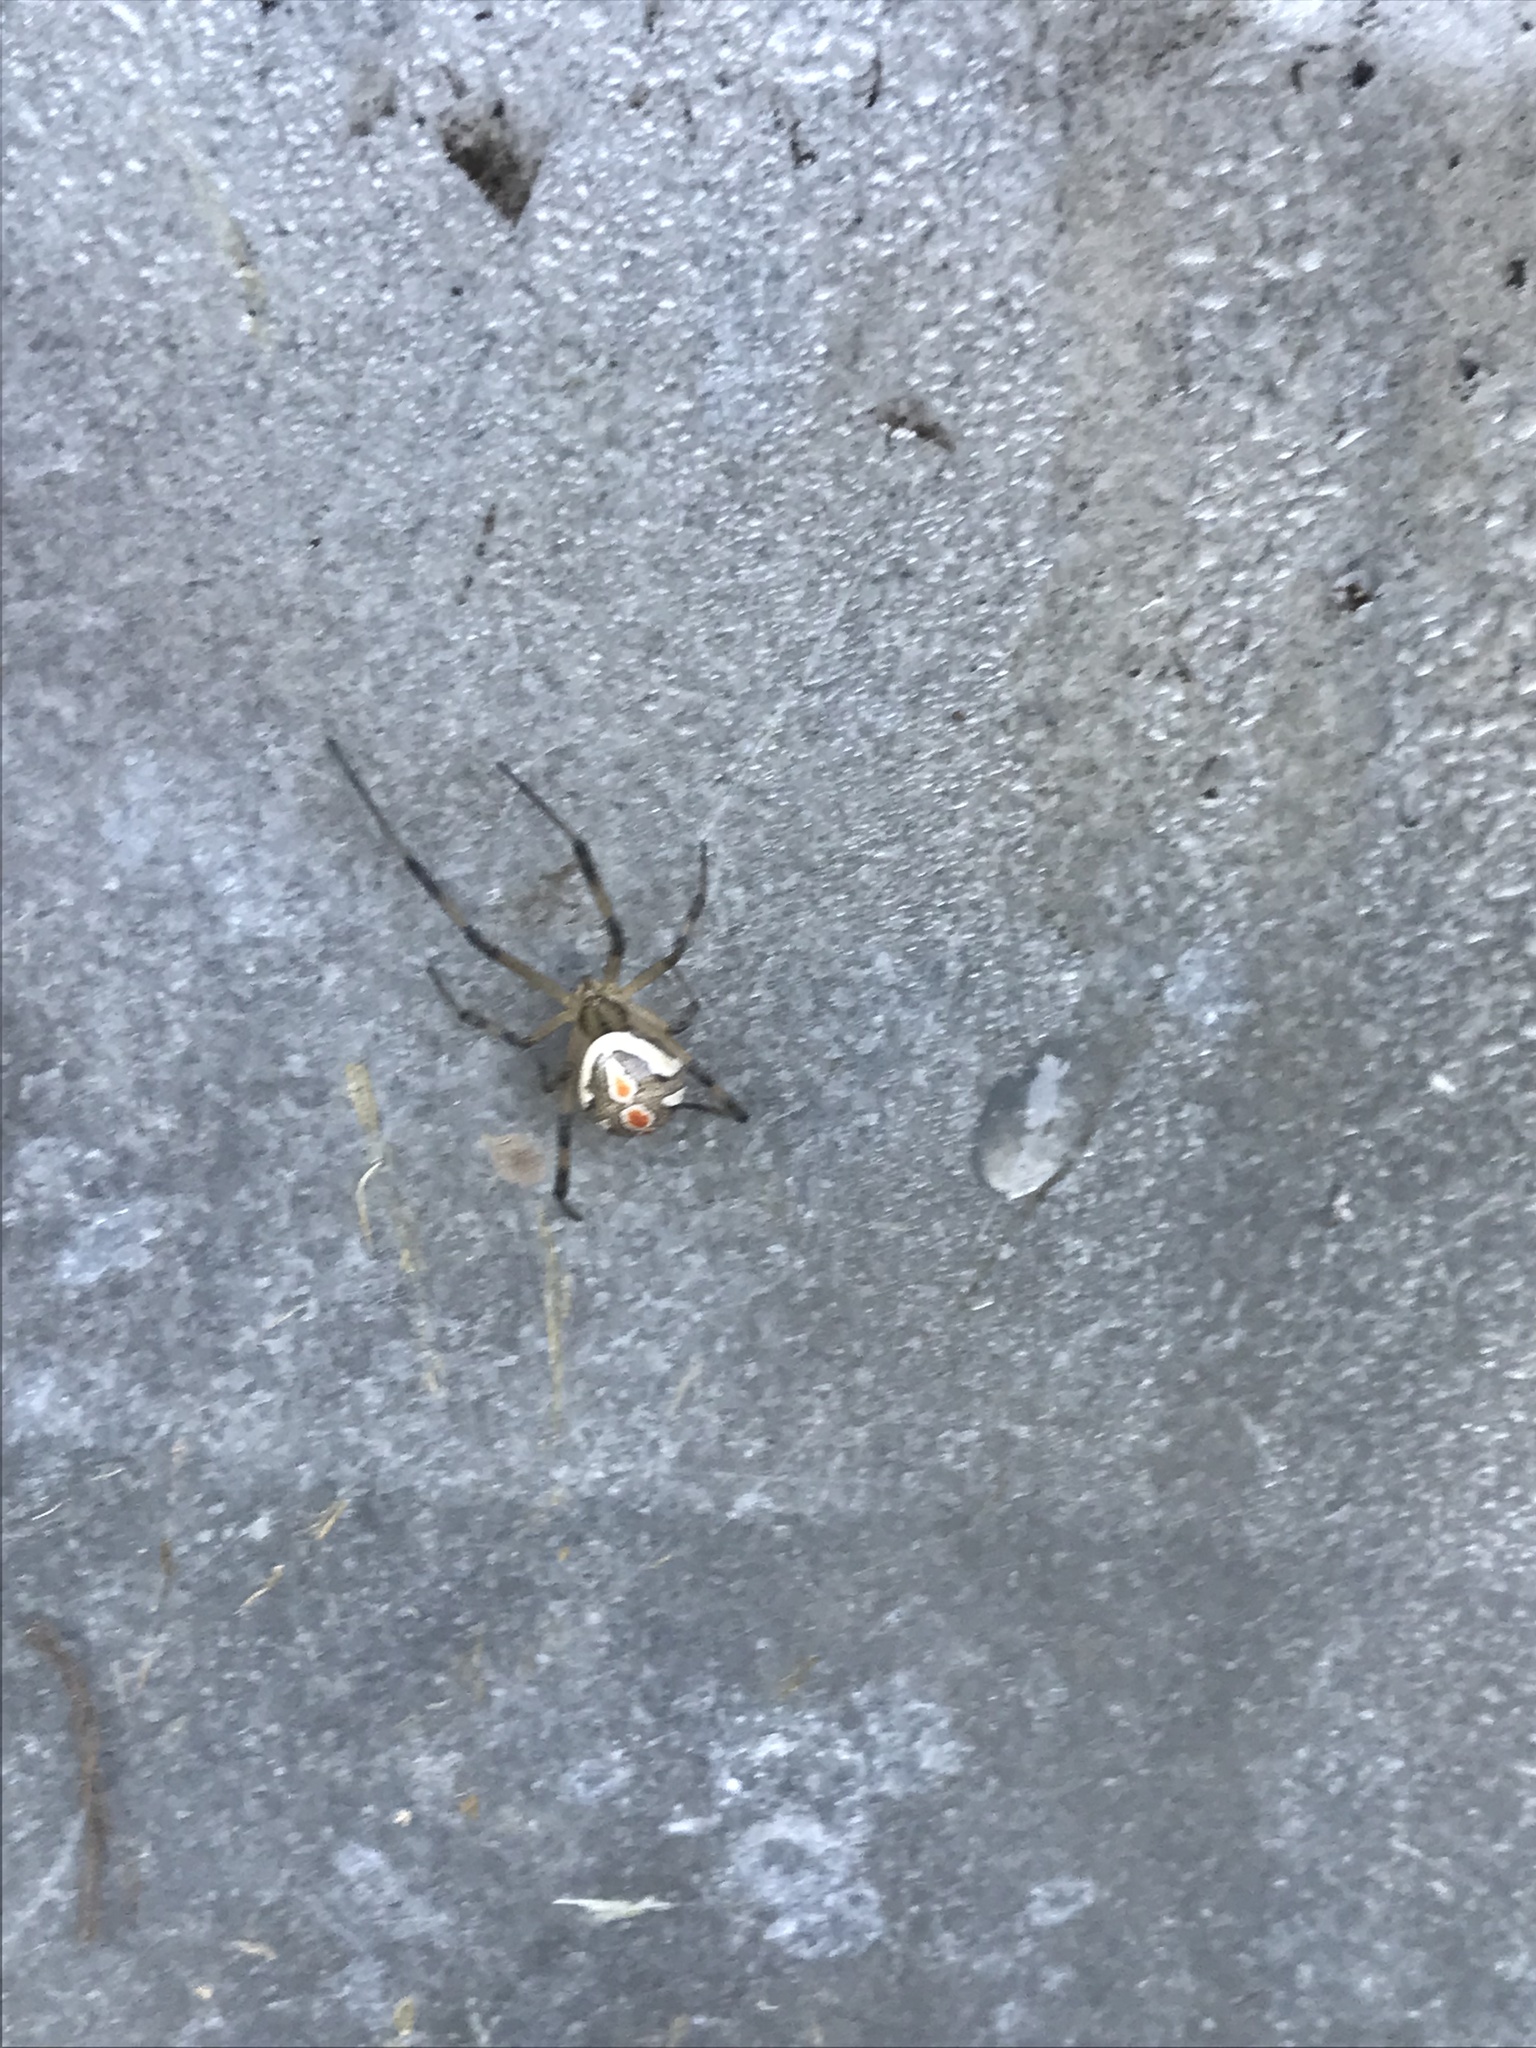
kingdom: Animalia
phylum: Arthropoda
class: Arachnida
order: Araneae
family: Theridiidae
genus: Latrodectus
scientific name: Latrodectus hesperus
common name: Western black widow
